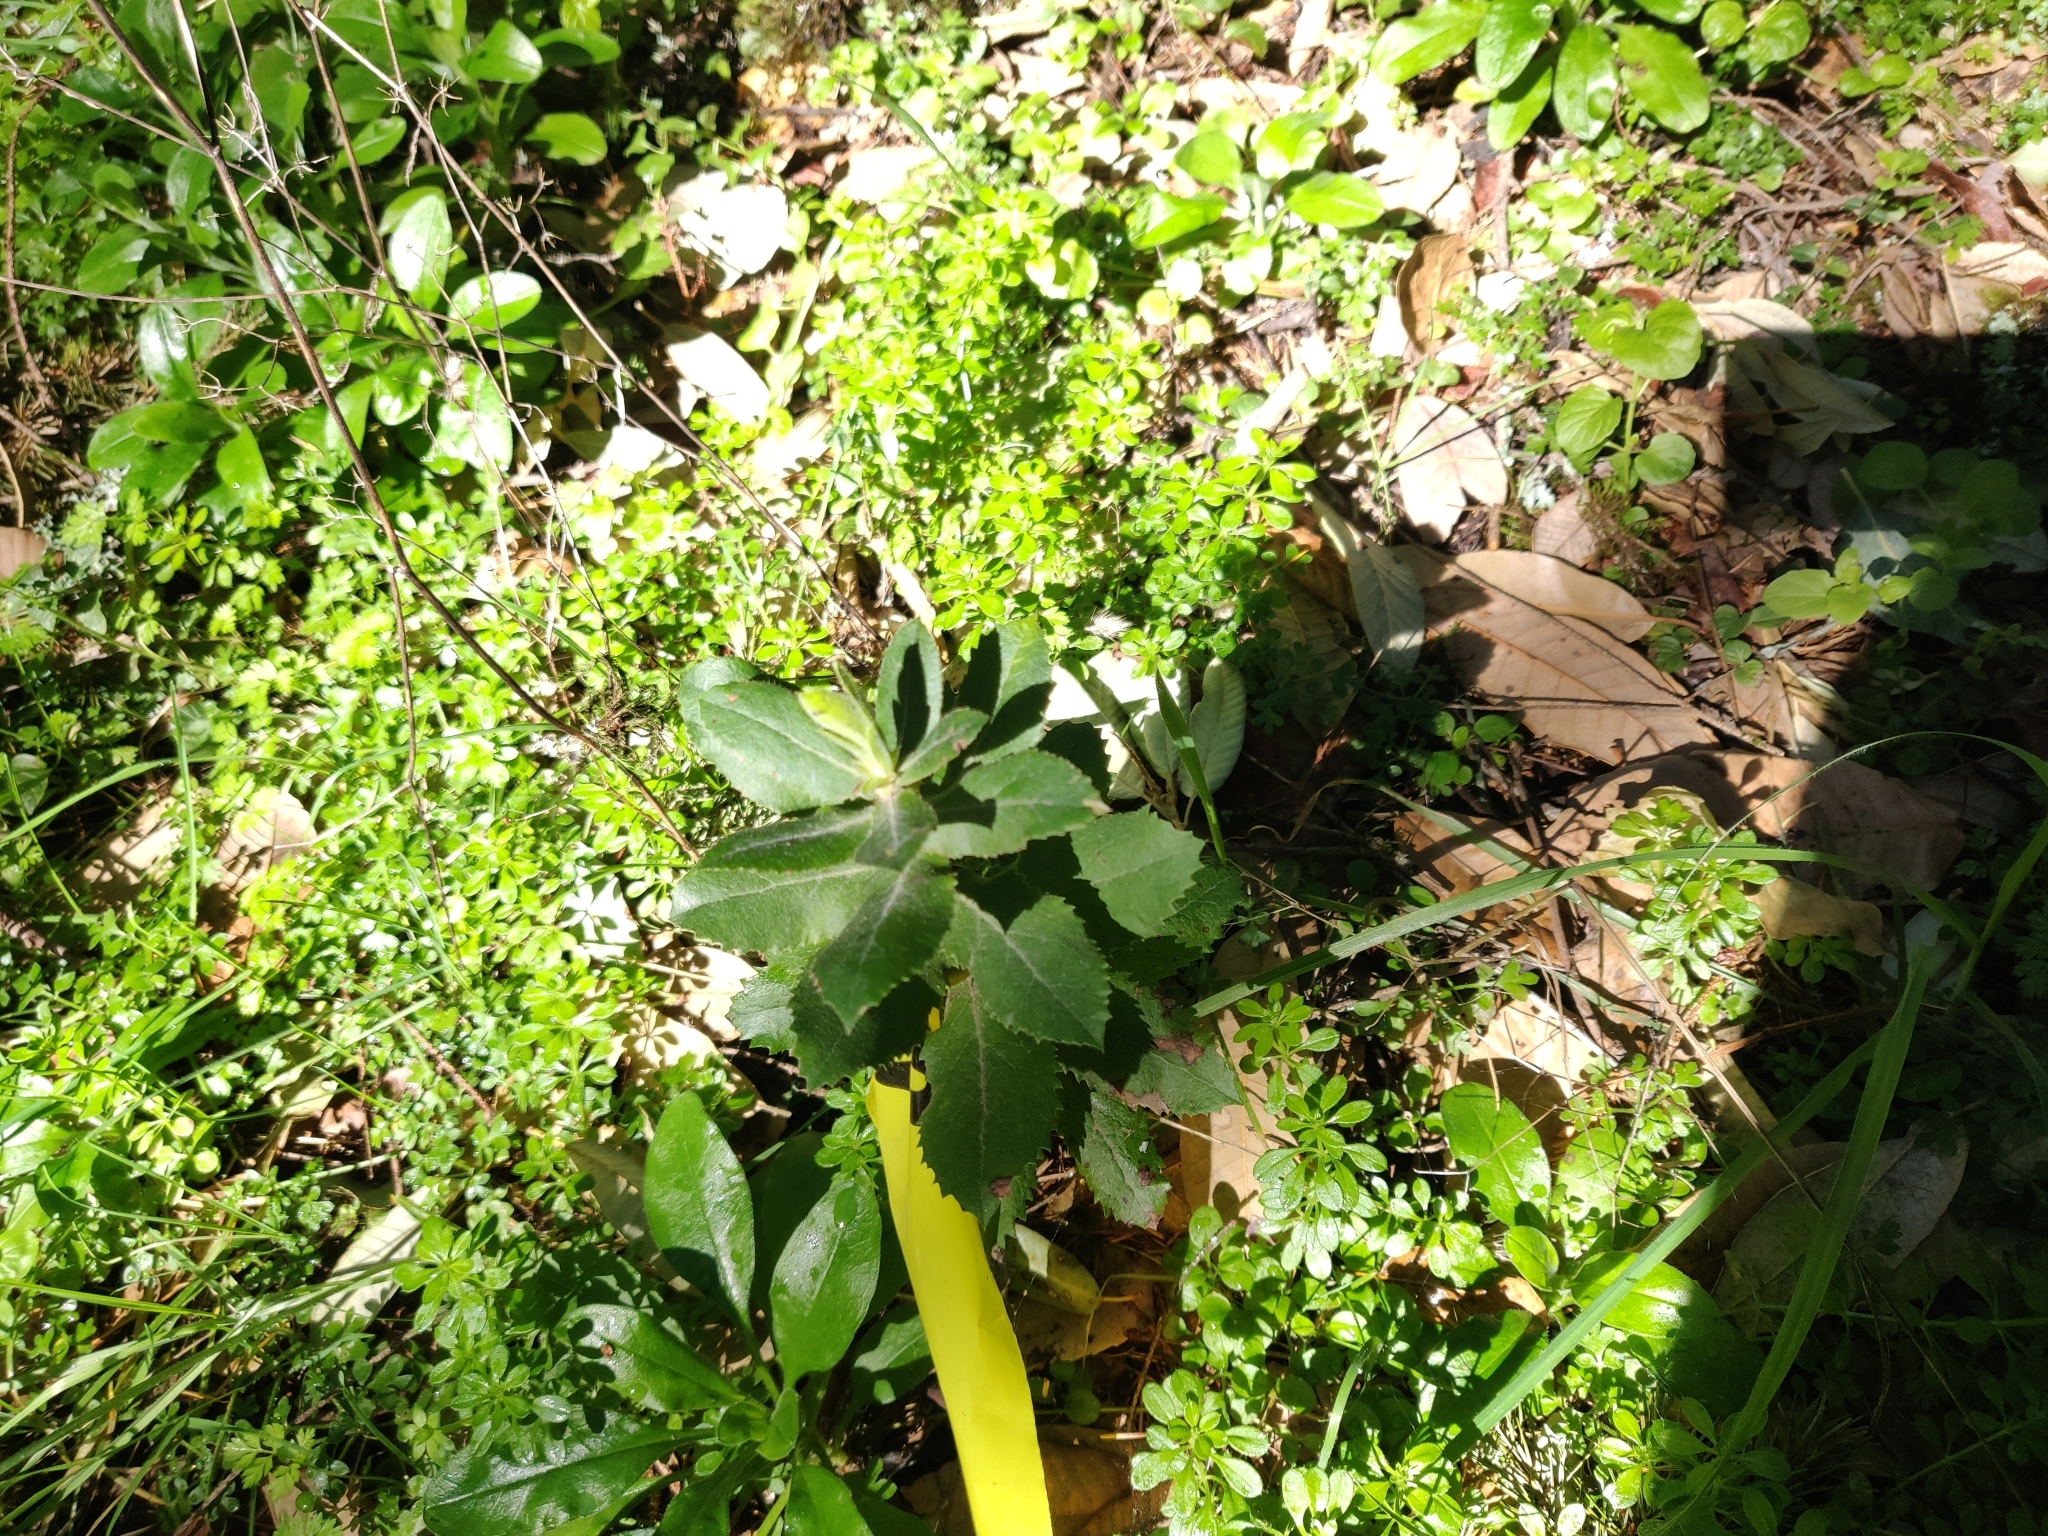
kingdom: Plantae
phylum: Tracheophyta
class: Magnoliopsida
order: Ericales
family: Ericaceae
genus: Arctostaphylos
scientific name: Arctostaphylos regismontana
